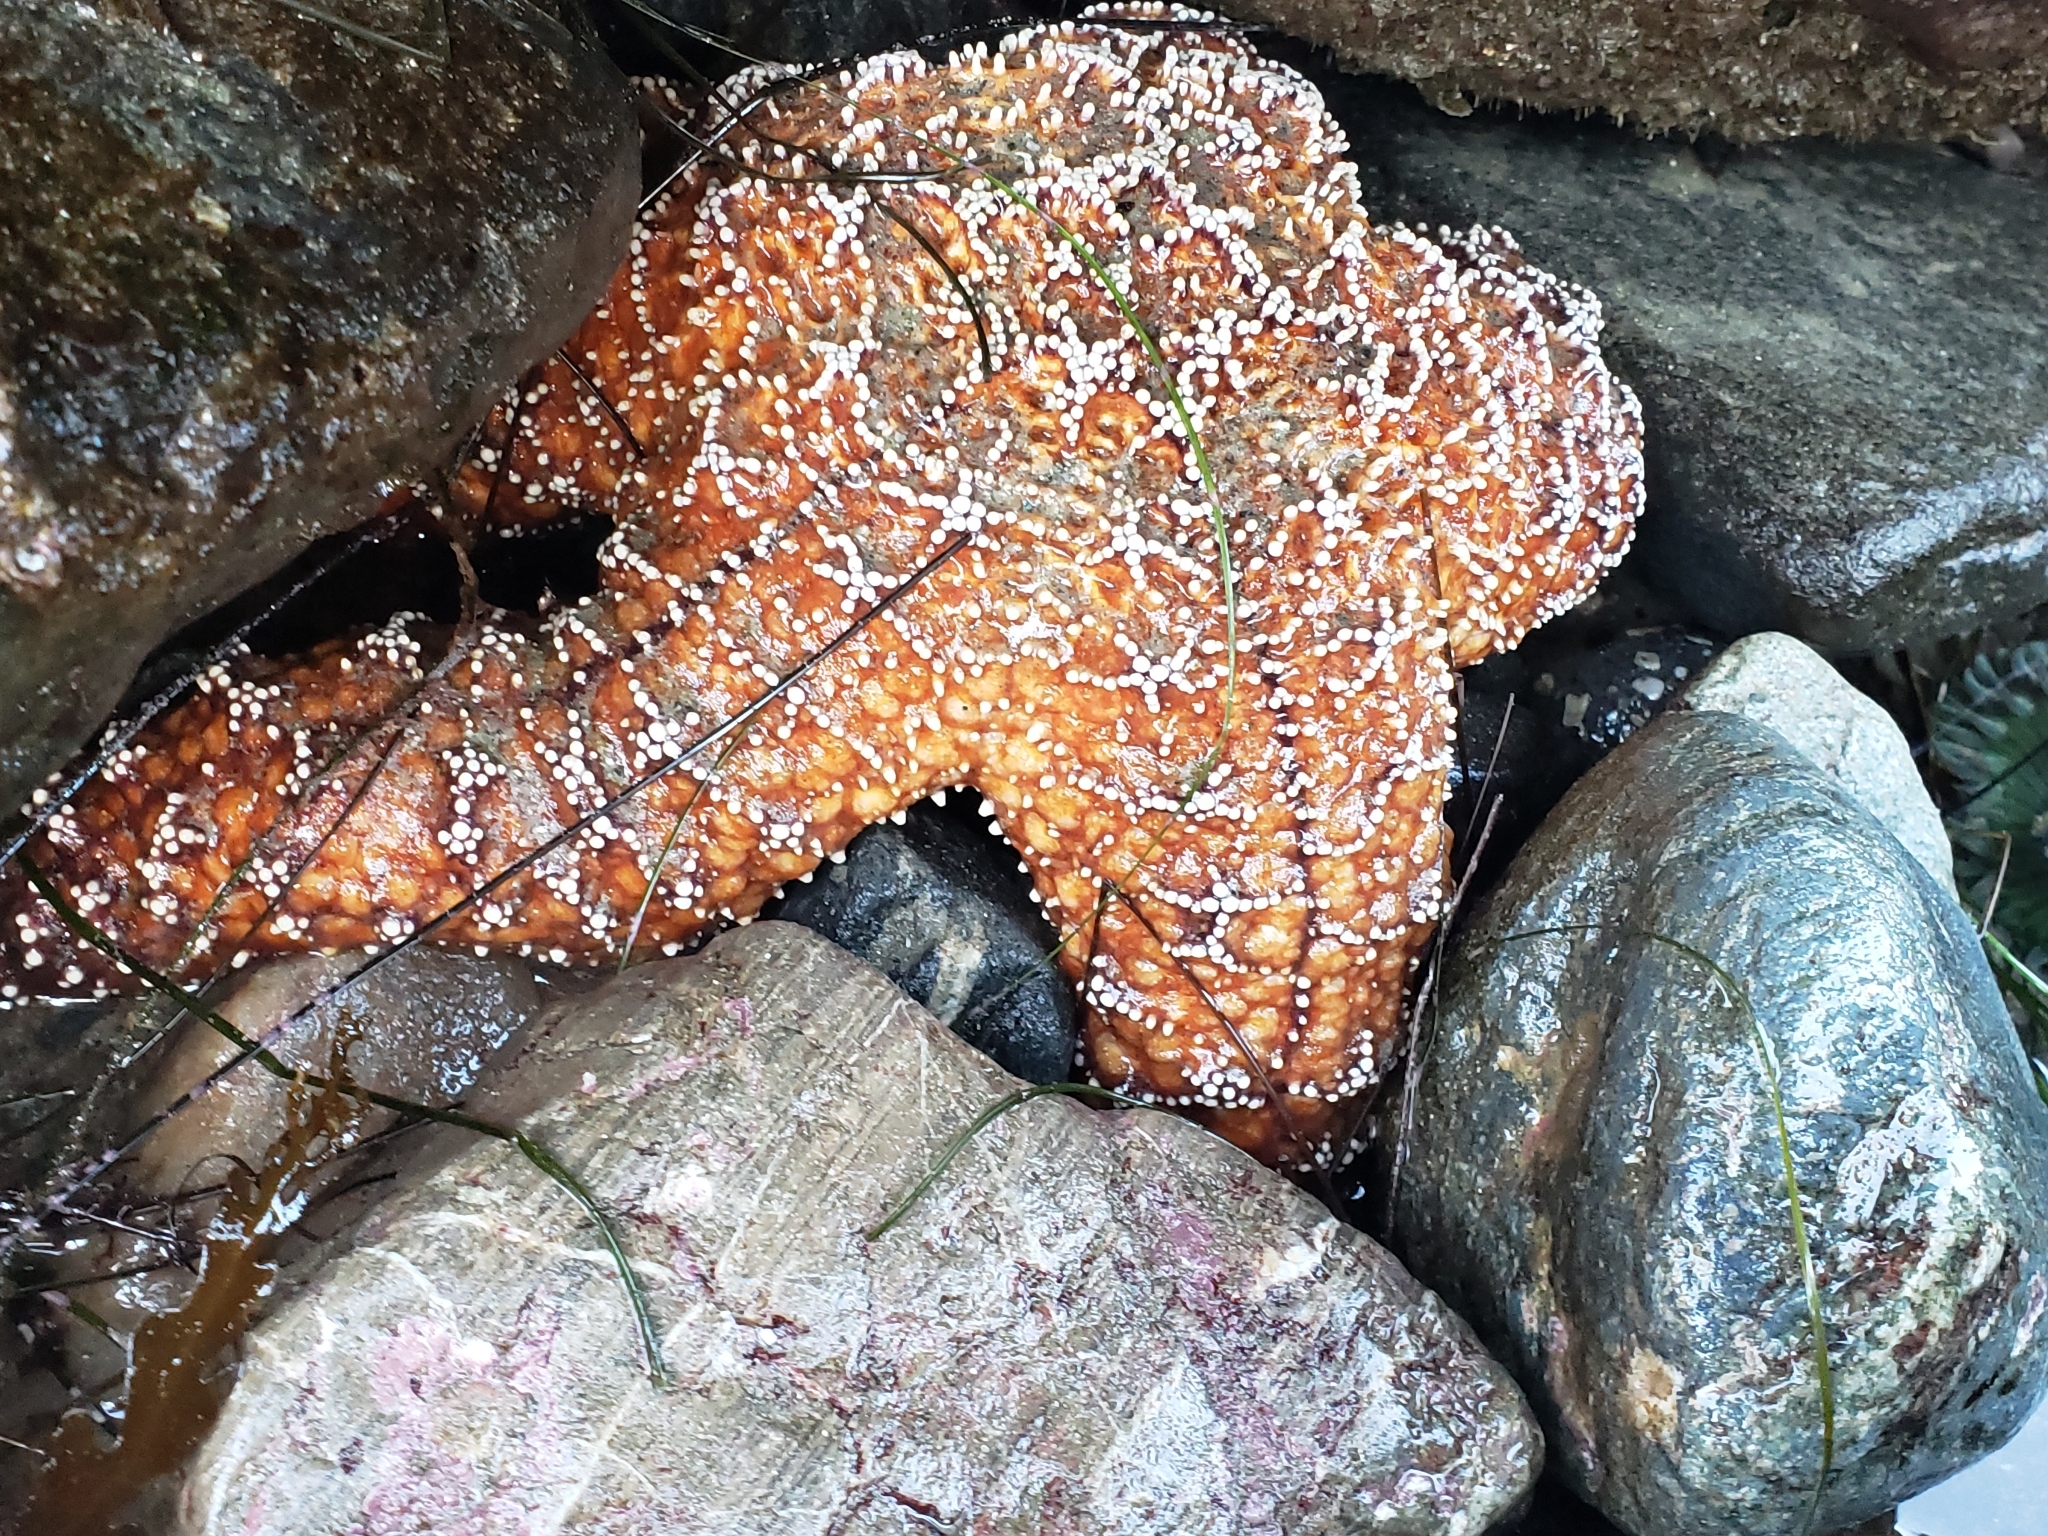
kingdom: Animalia
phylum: Echinodermata
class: Asteroidea
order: Forcipulatida
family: Asteriidae
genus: Pisaster
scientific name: Pisaster ochraceus
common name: Ochre stars
